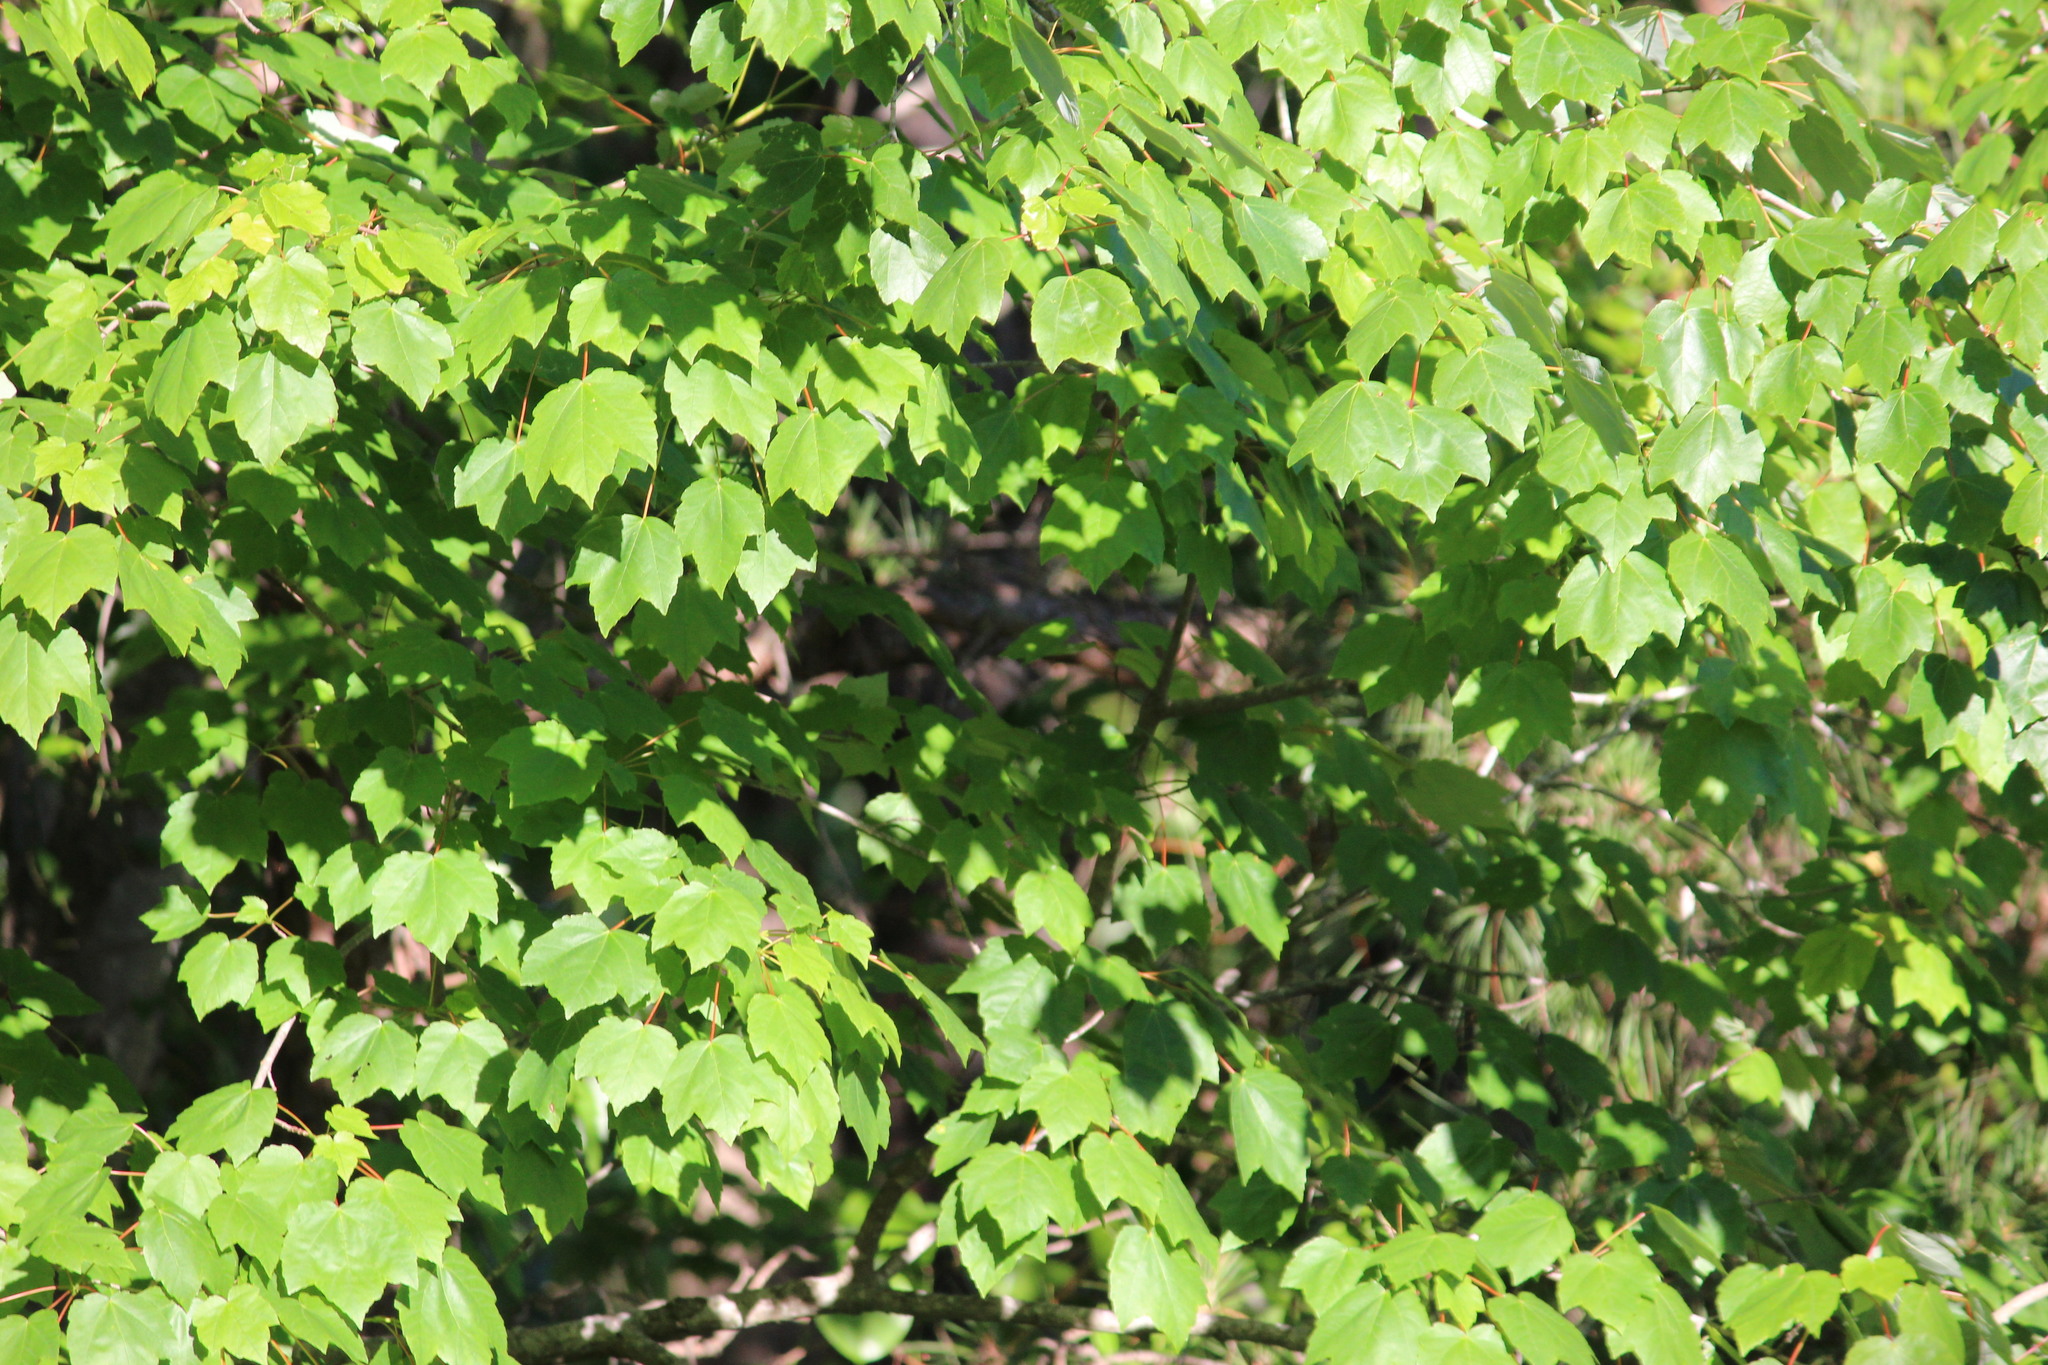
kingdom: Plantae
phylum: Tracheophyta
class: Magnoliopsida
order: Sapindales
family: Sapindaceae
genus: Acer
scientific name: Acer rubrum
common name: Red maple
